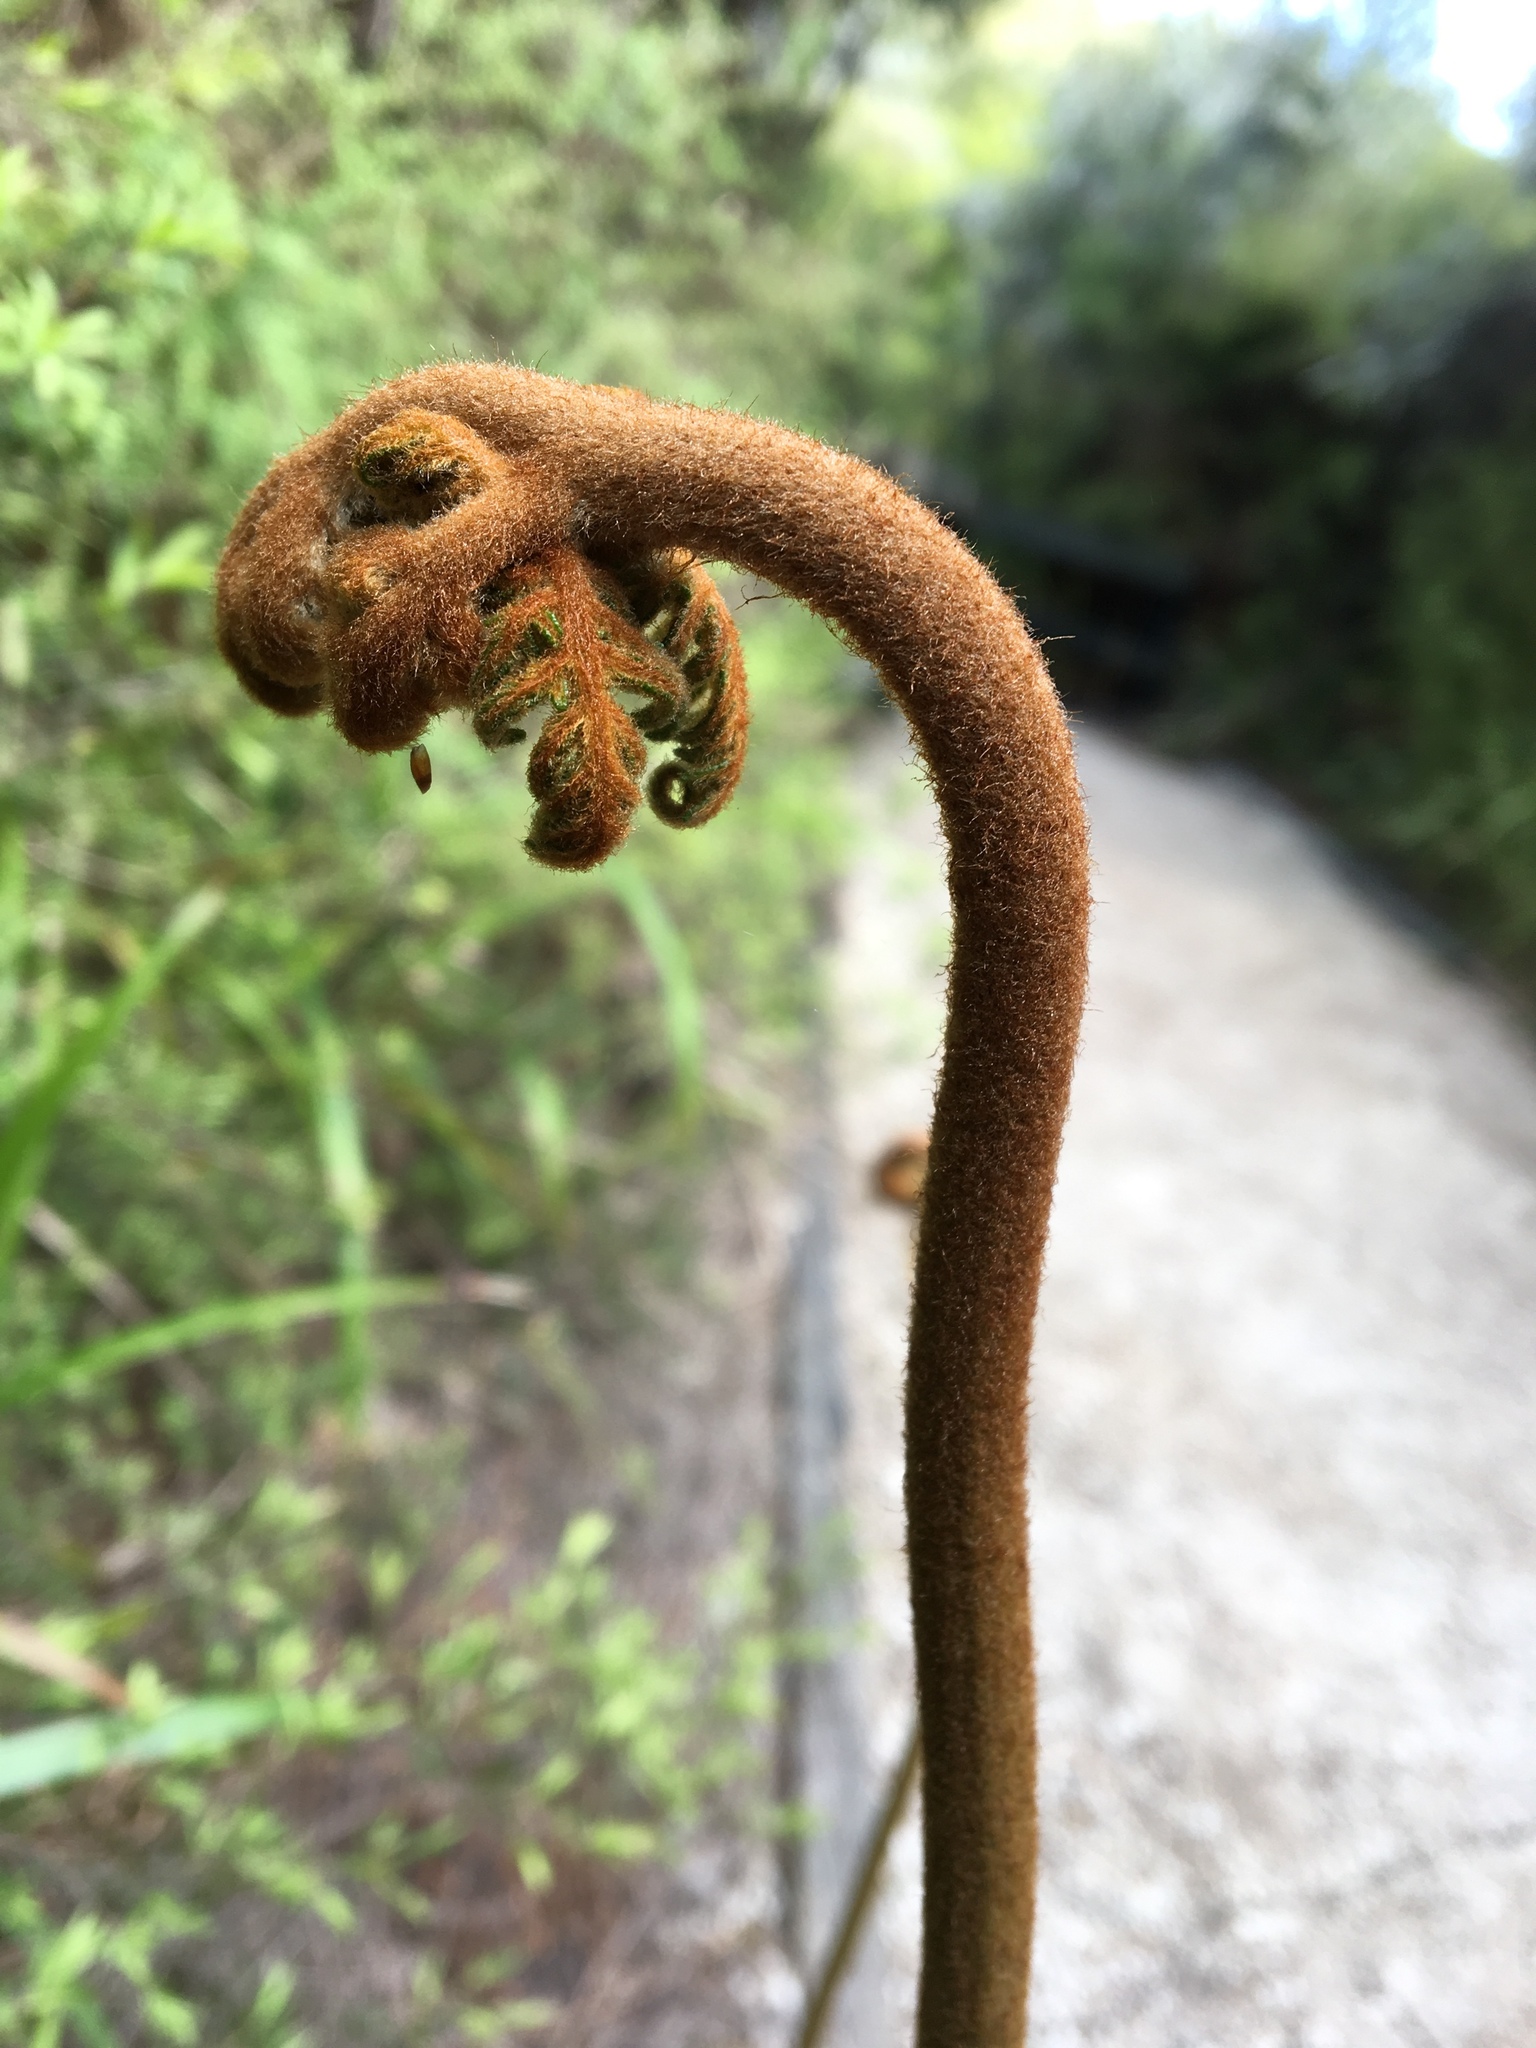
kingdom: Plantae
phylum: Tracheophyta
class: Polypodiopsida
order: Polypodiales
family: Dennstaedtiaceae
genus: Pteridium
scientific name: Pteridium esculentum
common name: Bracken fern
